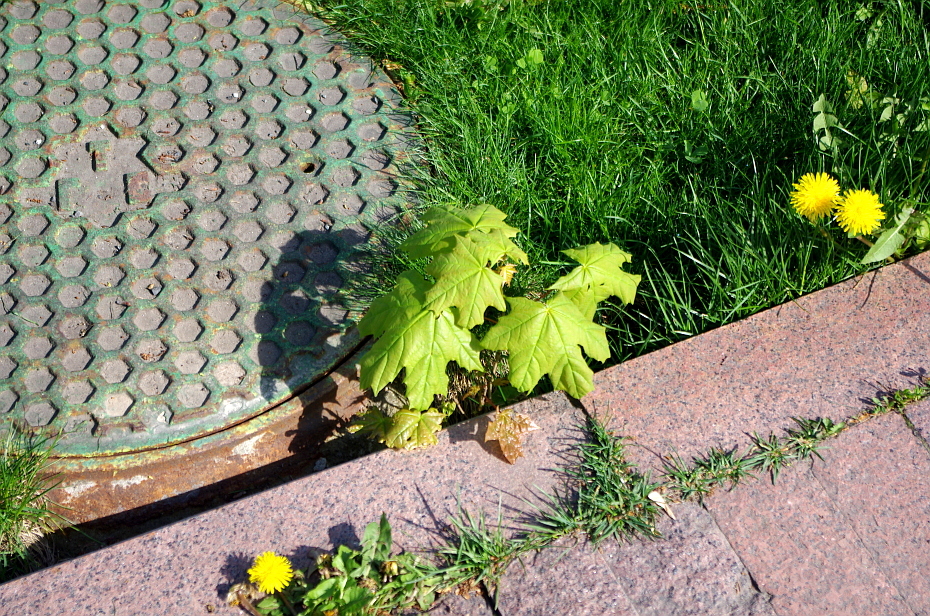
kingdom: Plantae
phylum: Tracheophyta
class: Magnoliopsida
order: Sapindales
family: Sapindaceae
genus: Acer
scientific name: Acer platanoides
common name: Norway maple
